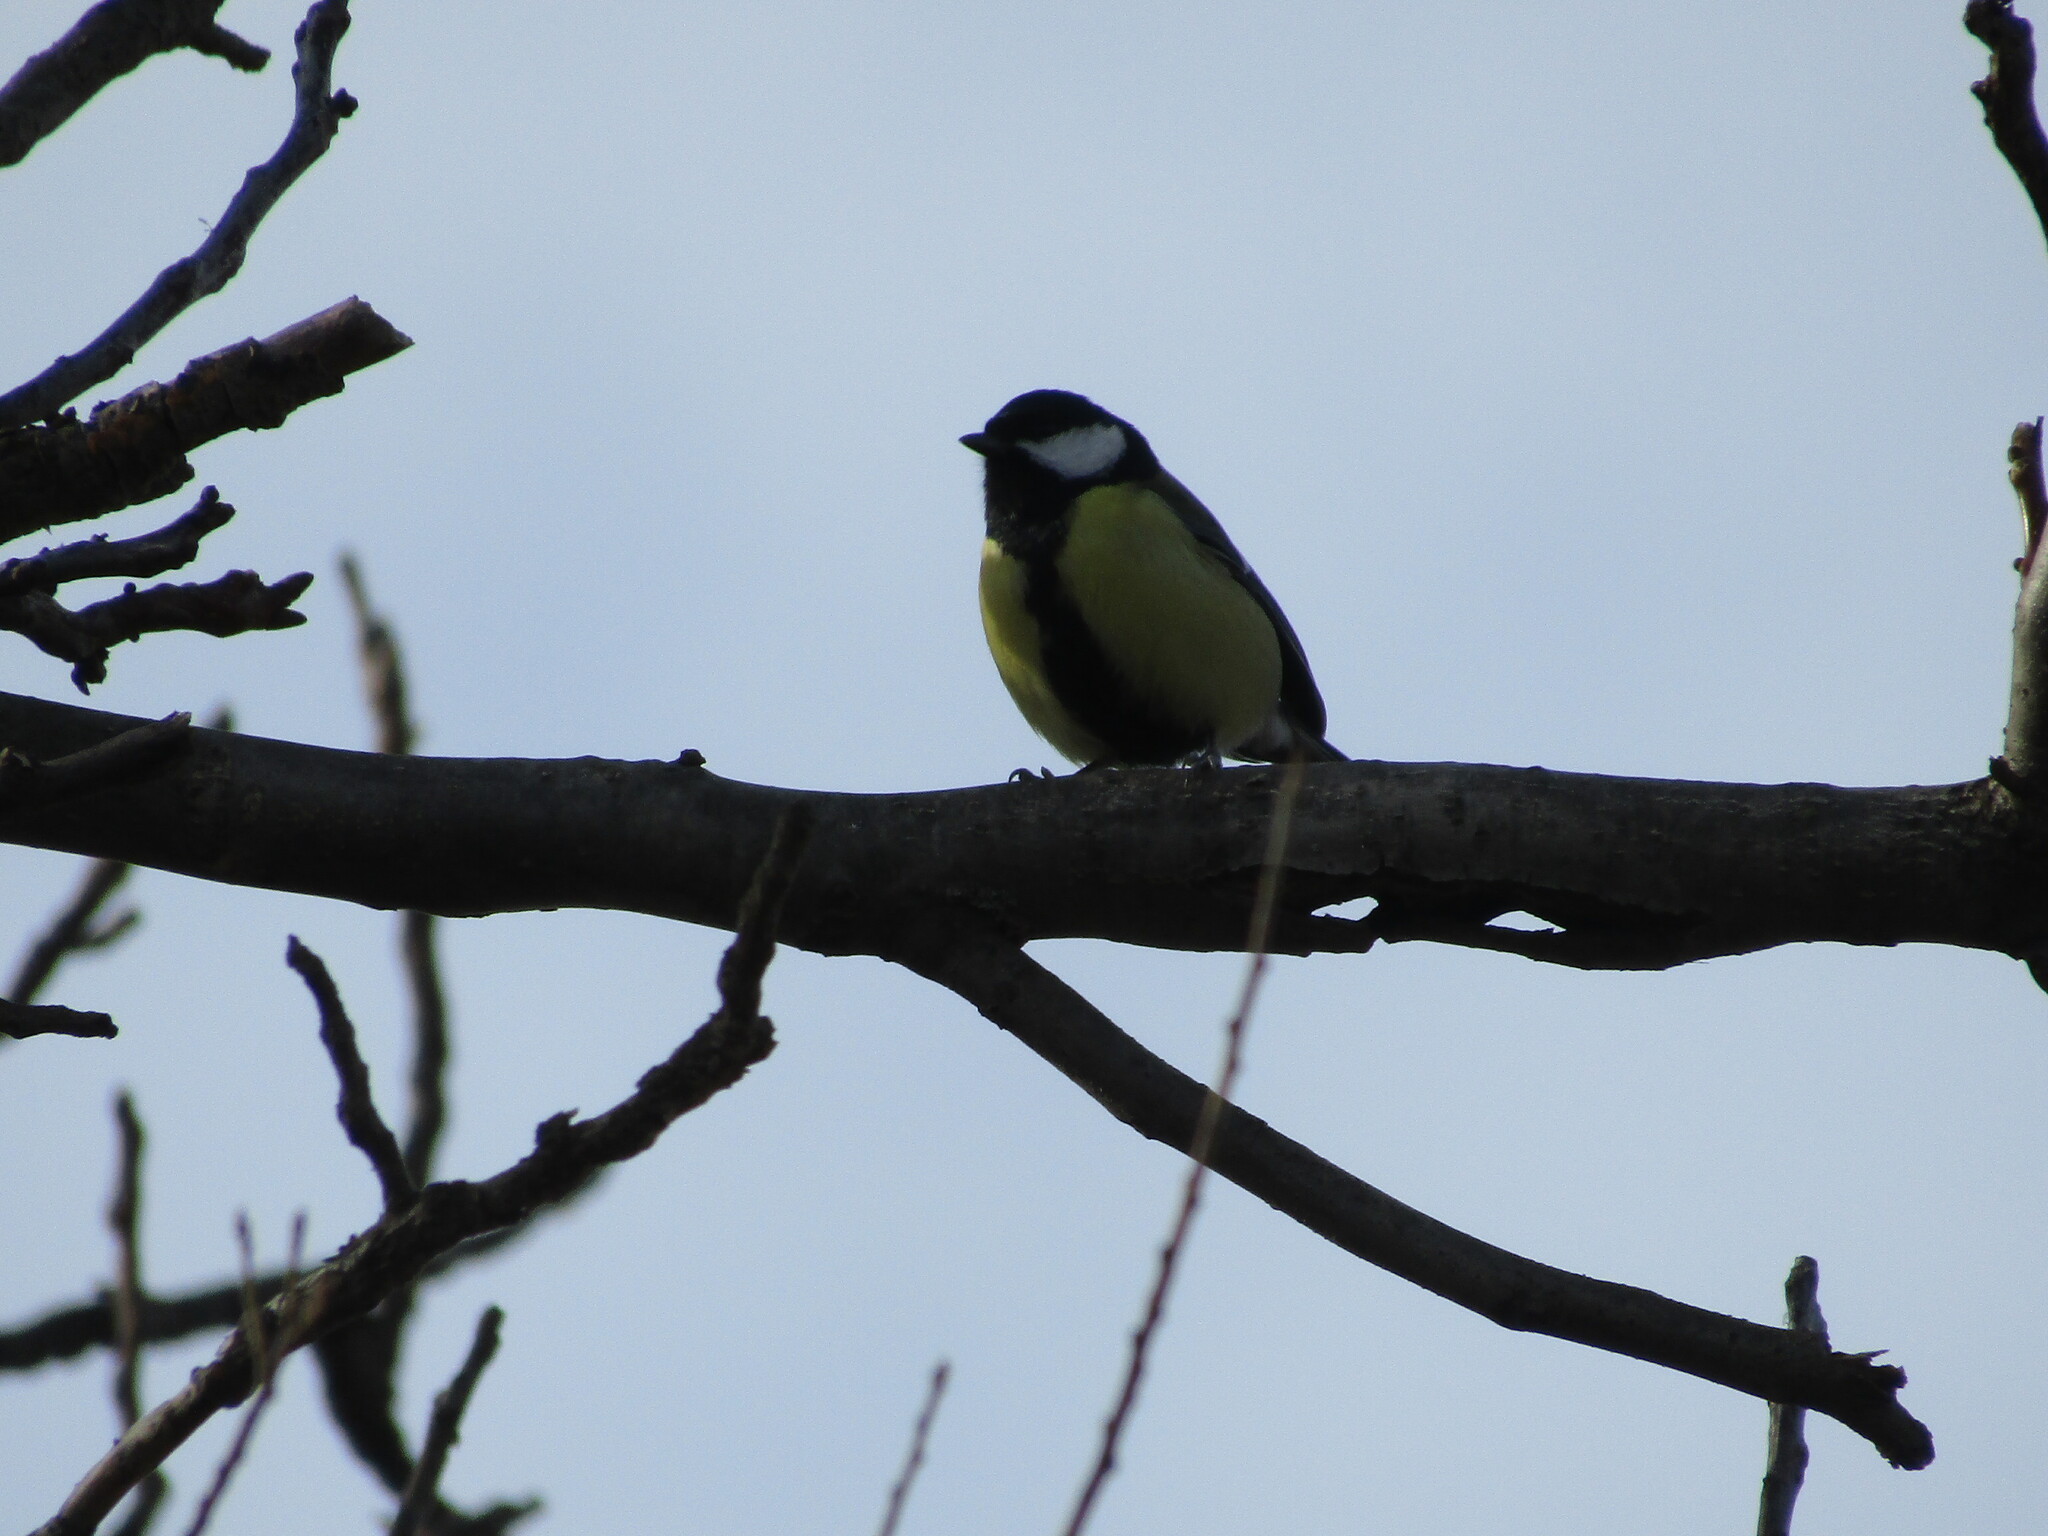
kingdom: Animalia
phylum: Chordata
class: Aves
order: Passeriformes
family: Paridae
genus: Parus
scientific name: Parus major
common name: Great tit
